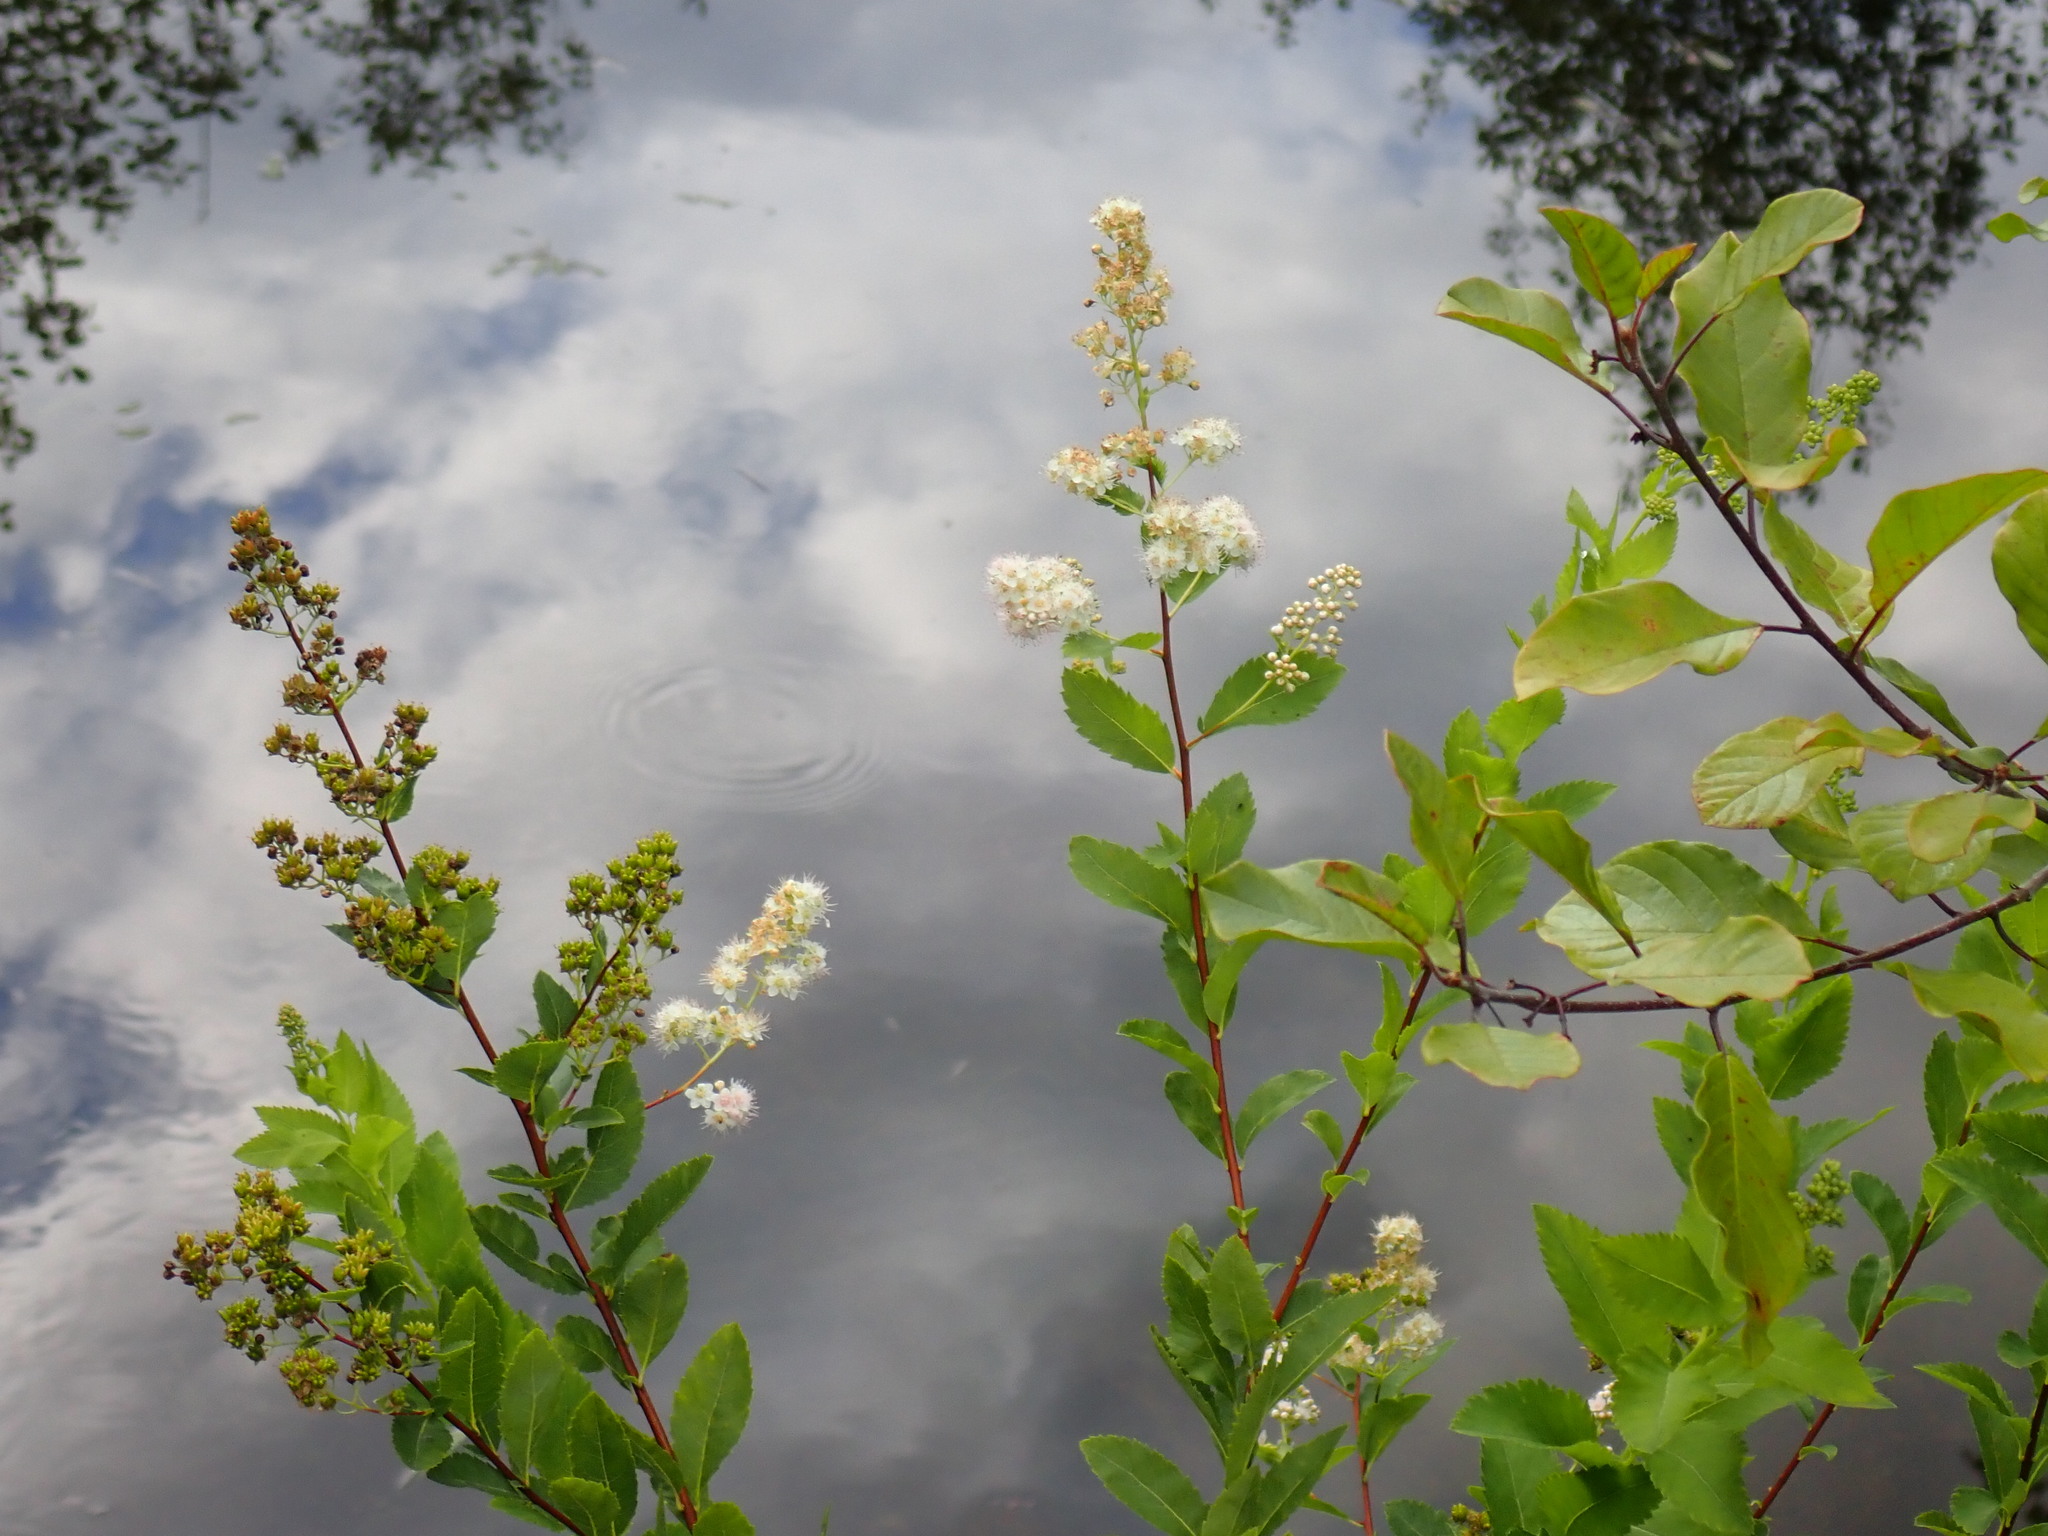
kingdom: Plantae
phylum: Tracheophyta
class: Magnoliopsida
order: Rosales
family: Rosaceae
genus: Spiraea
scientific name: Spiraea alba
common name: Pale bridewort
